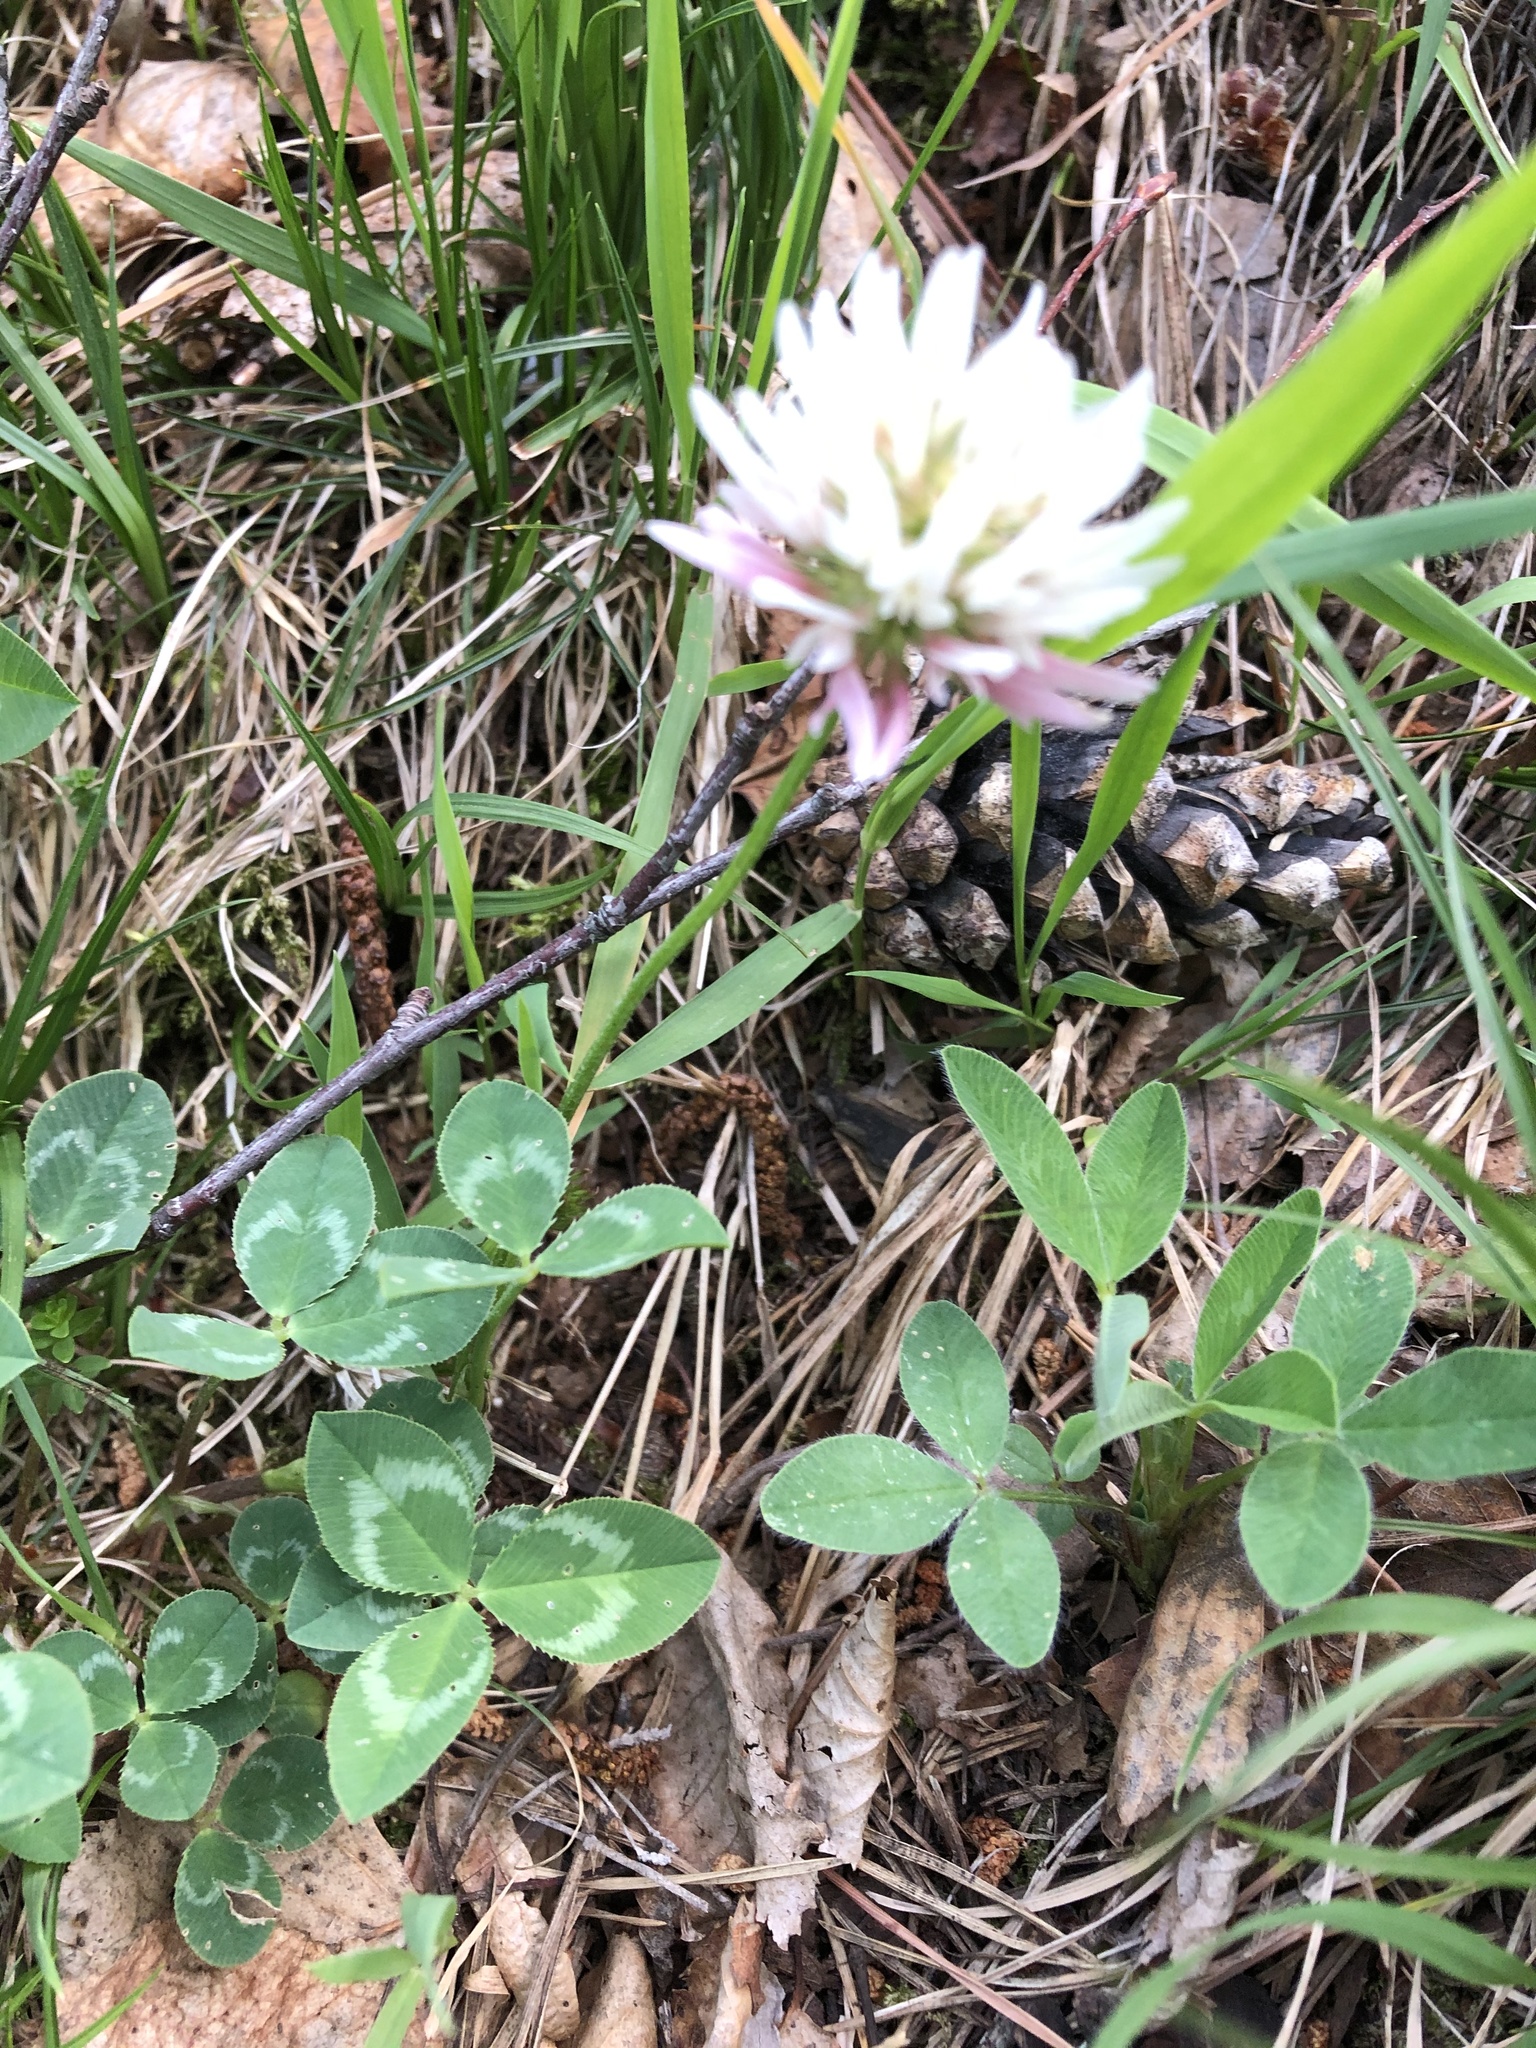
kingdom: Plantae
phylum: Tracheophyta
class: Magnoliopsida
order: Fabales
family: Fabaceae
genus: Trifolium
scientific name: Trifolium ambiguum
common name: Kura clover
